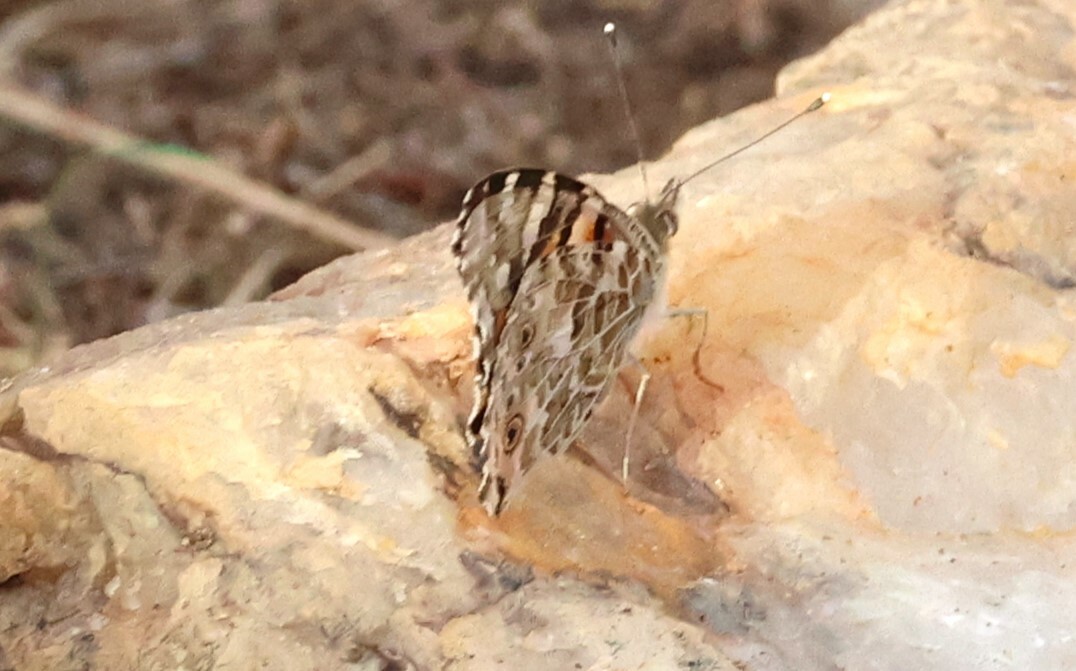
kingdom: Animalia
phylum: Arthropoda
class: Insecta
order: Lepidoptera
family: Nymphalidae
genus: Vanessa
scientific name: Vanessa cardui
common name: Painted lady
